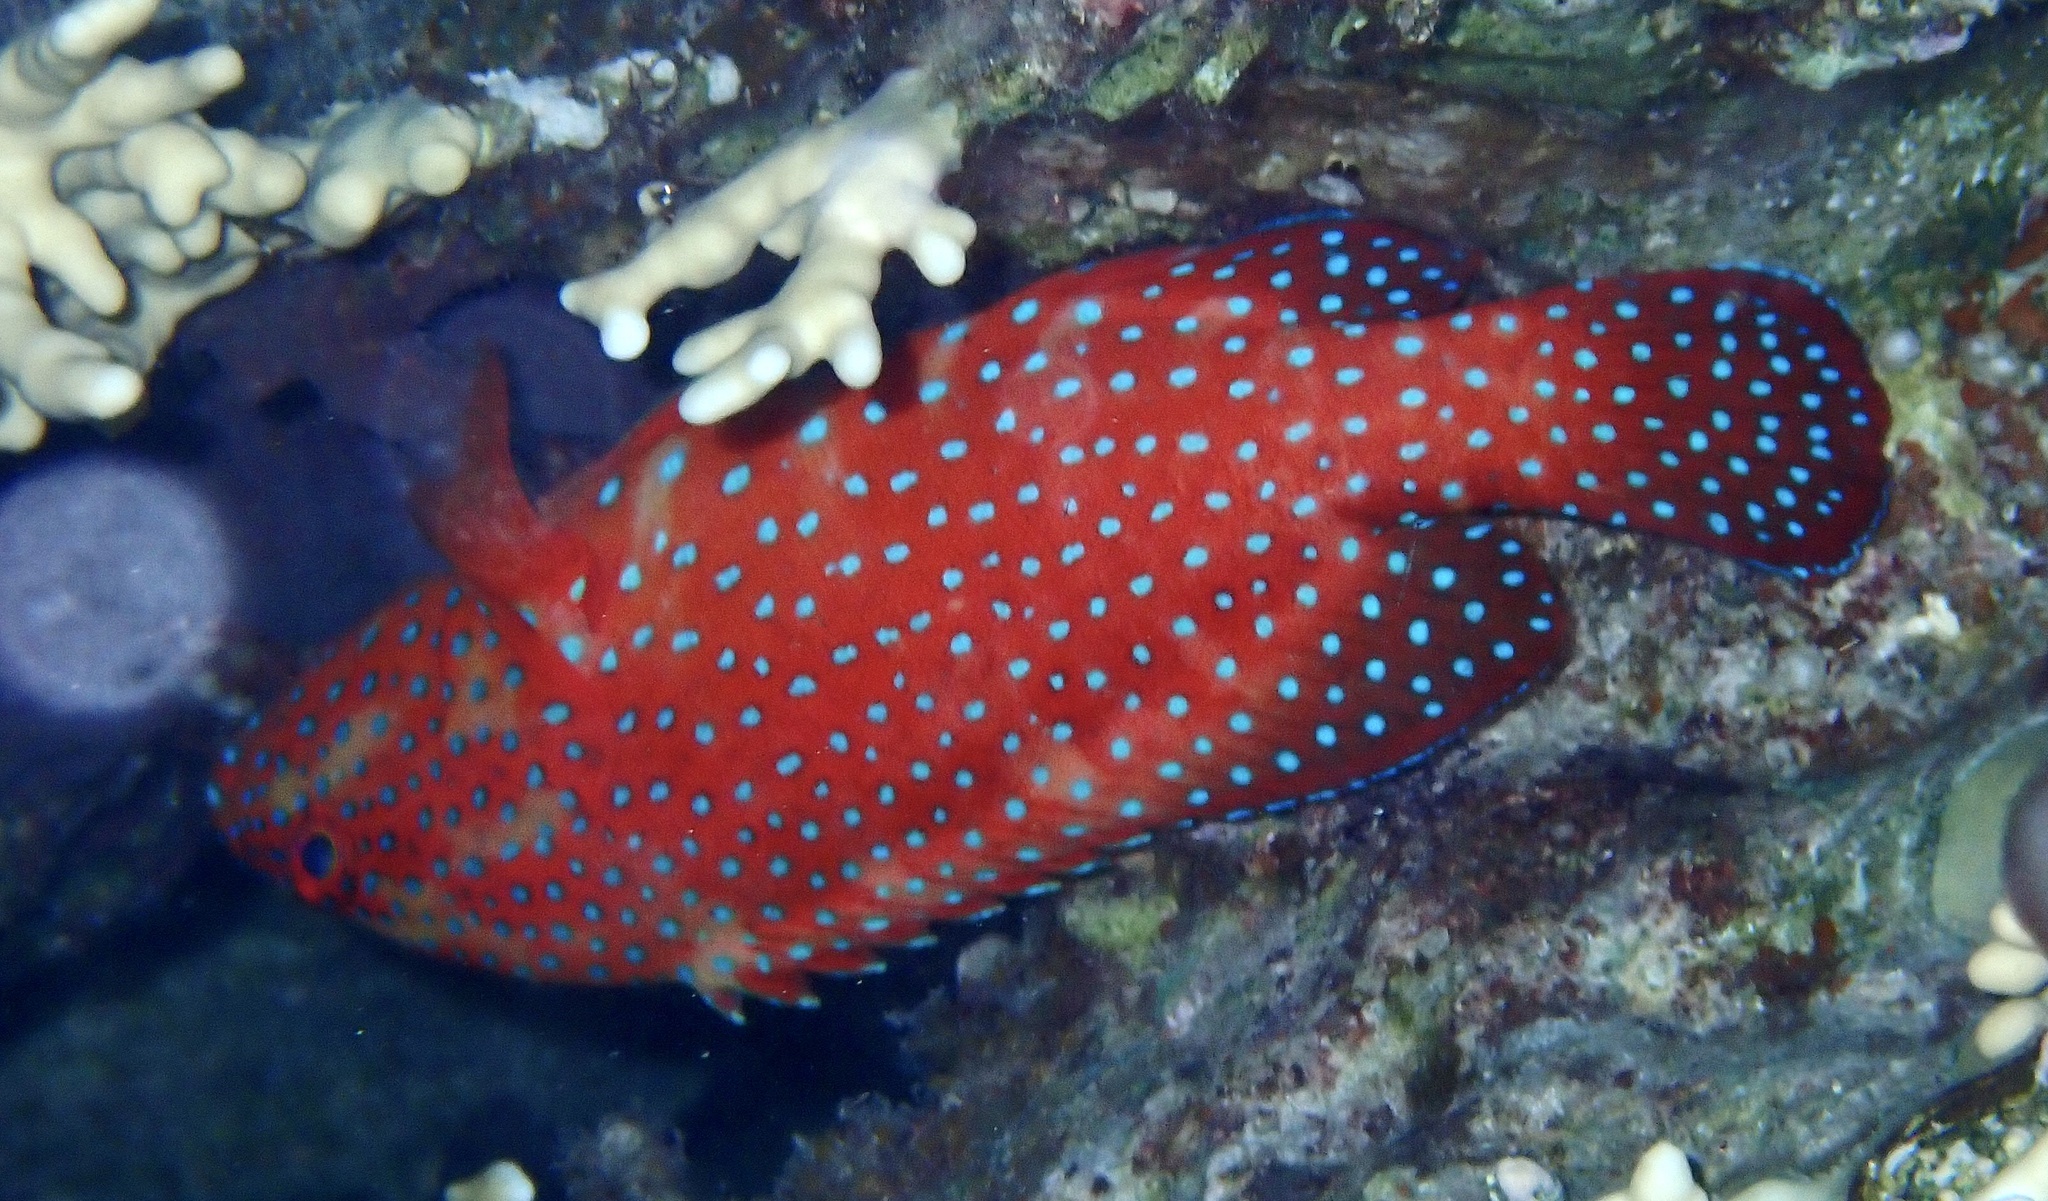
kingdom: Animalia
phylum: Chordata
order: Perciformes
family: Serranidae
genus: Cephalopholis
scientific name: Cephalopholis miniata
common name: Coral hind
